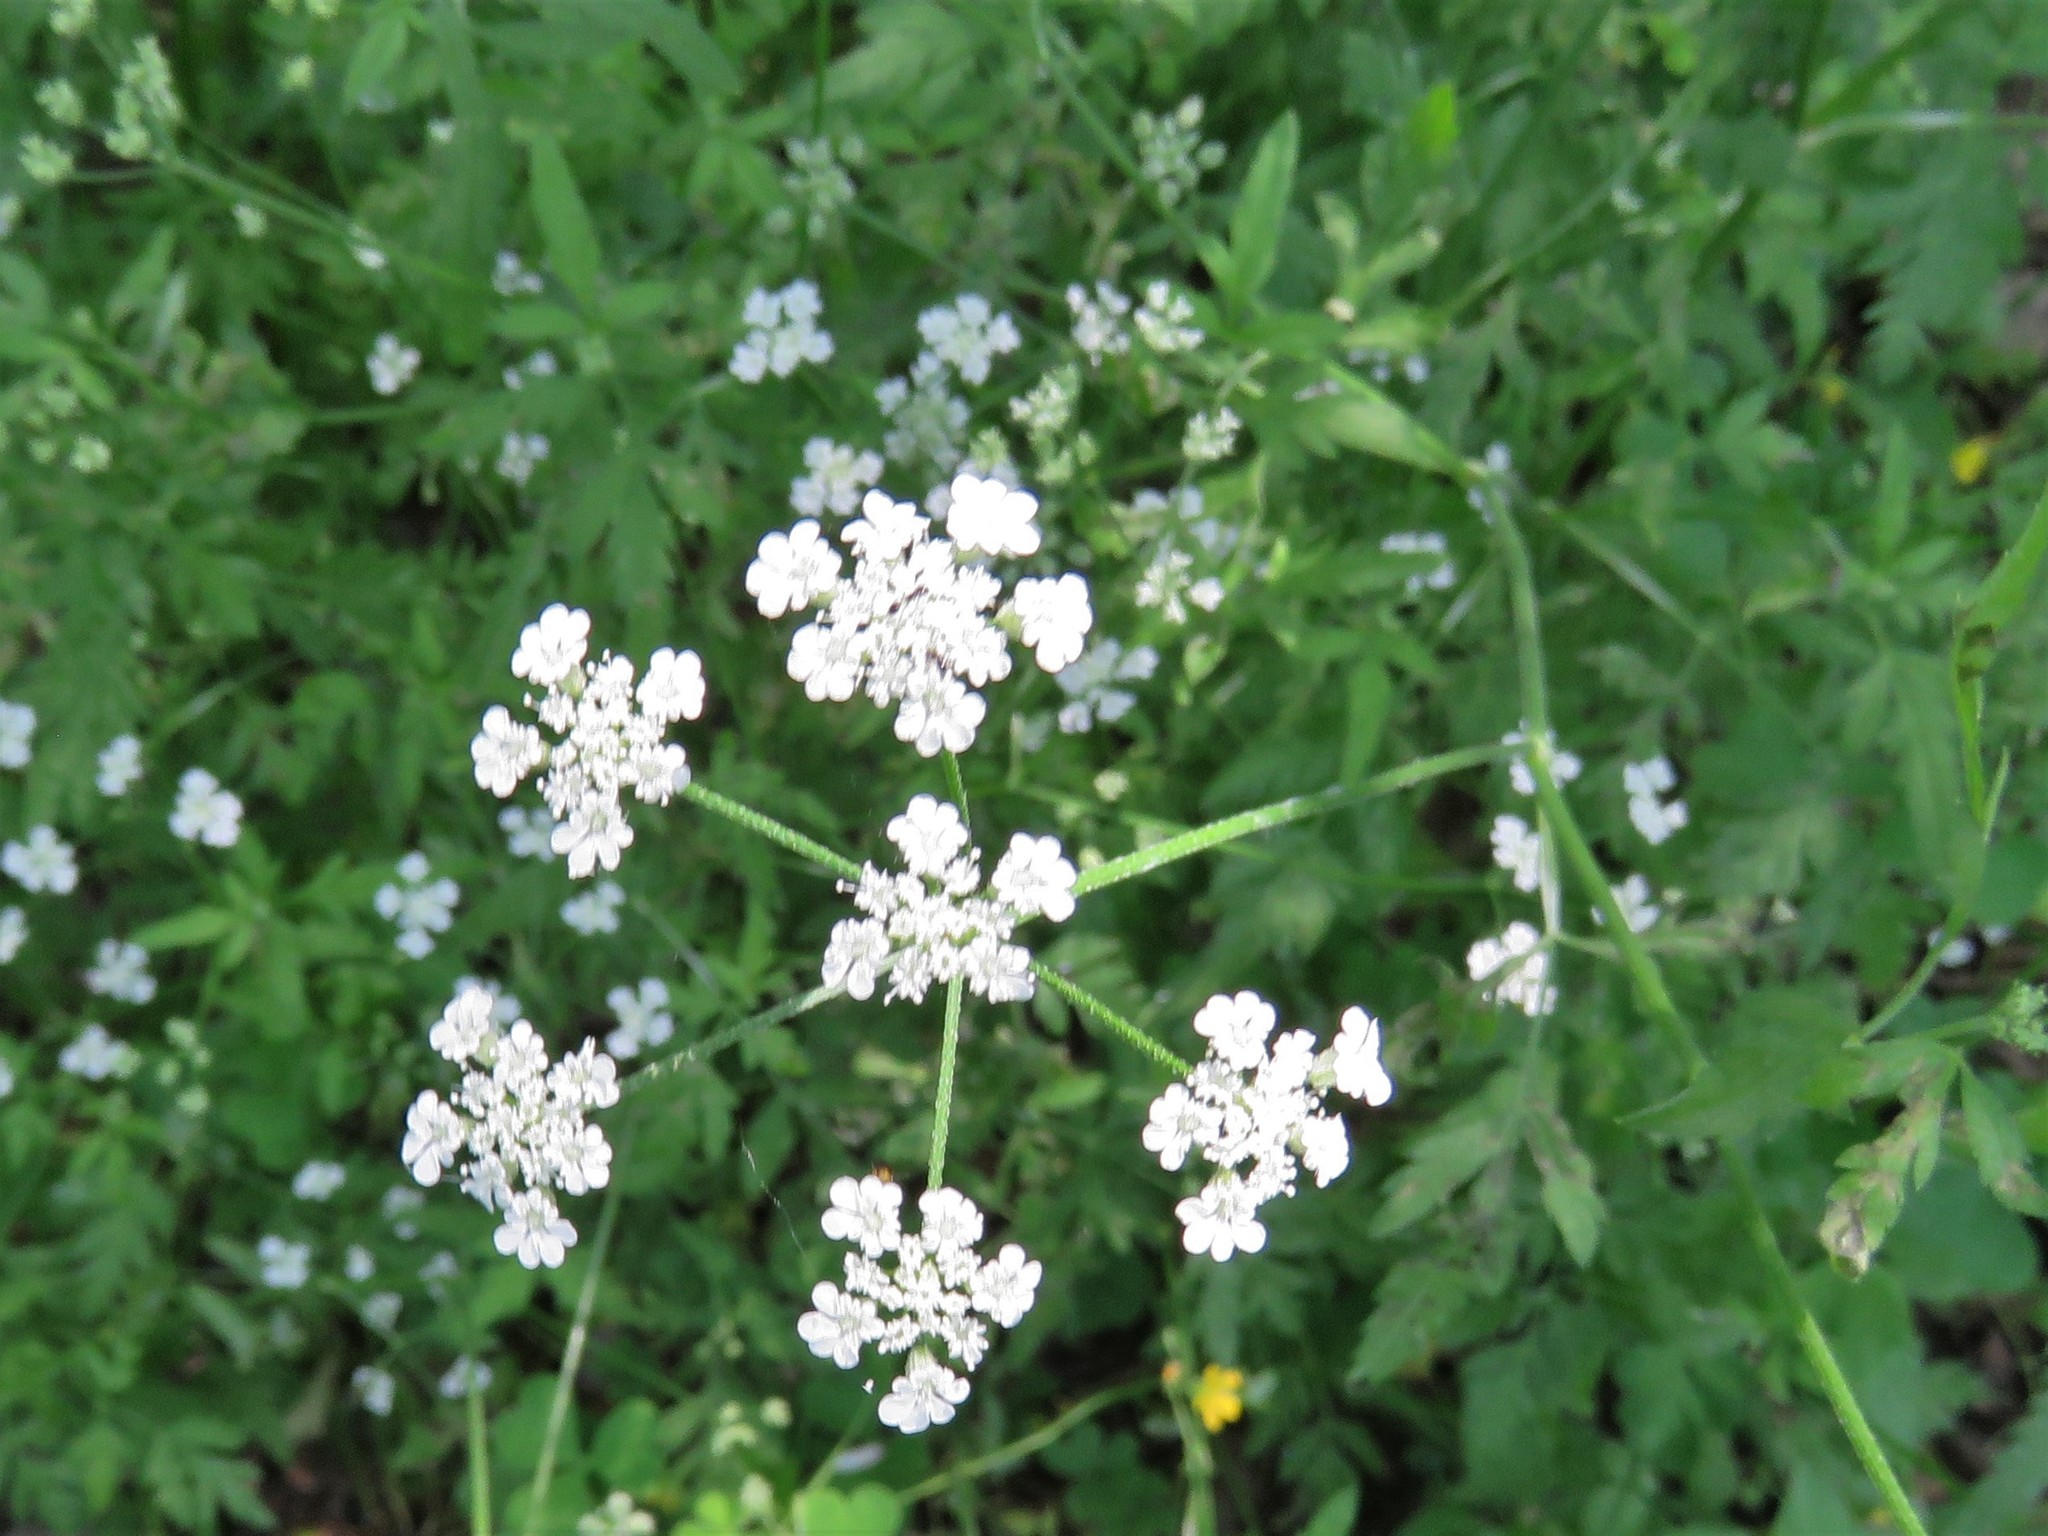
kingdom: Plantae
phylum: Tracheophyta
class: Magnoliopsida
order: Apiales
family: Apiaceae
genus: Torilis
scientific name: Torilis arvensis
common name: Spreading hedge-parsley
